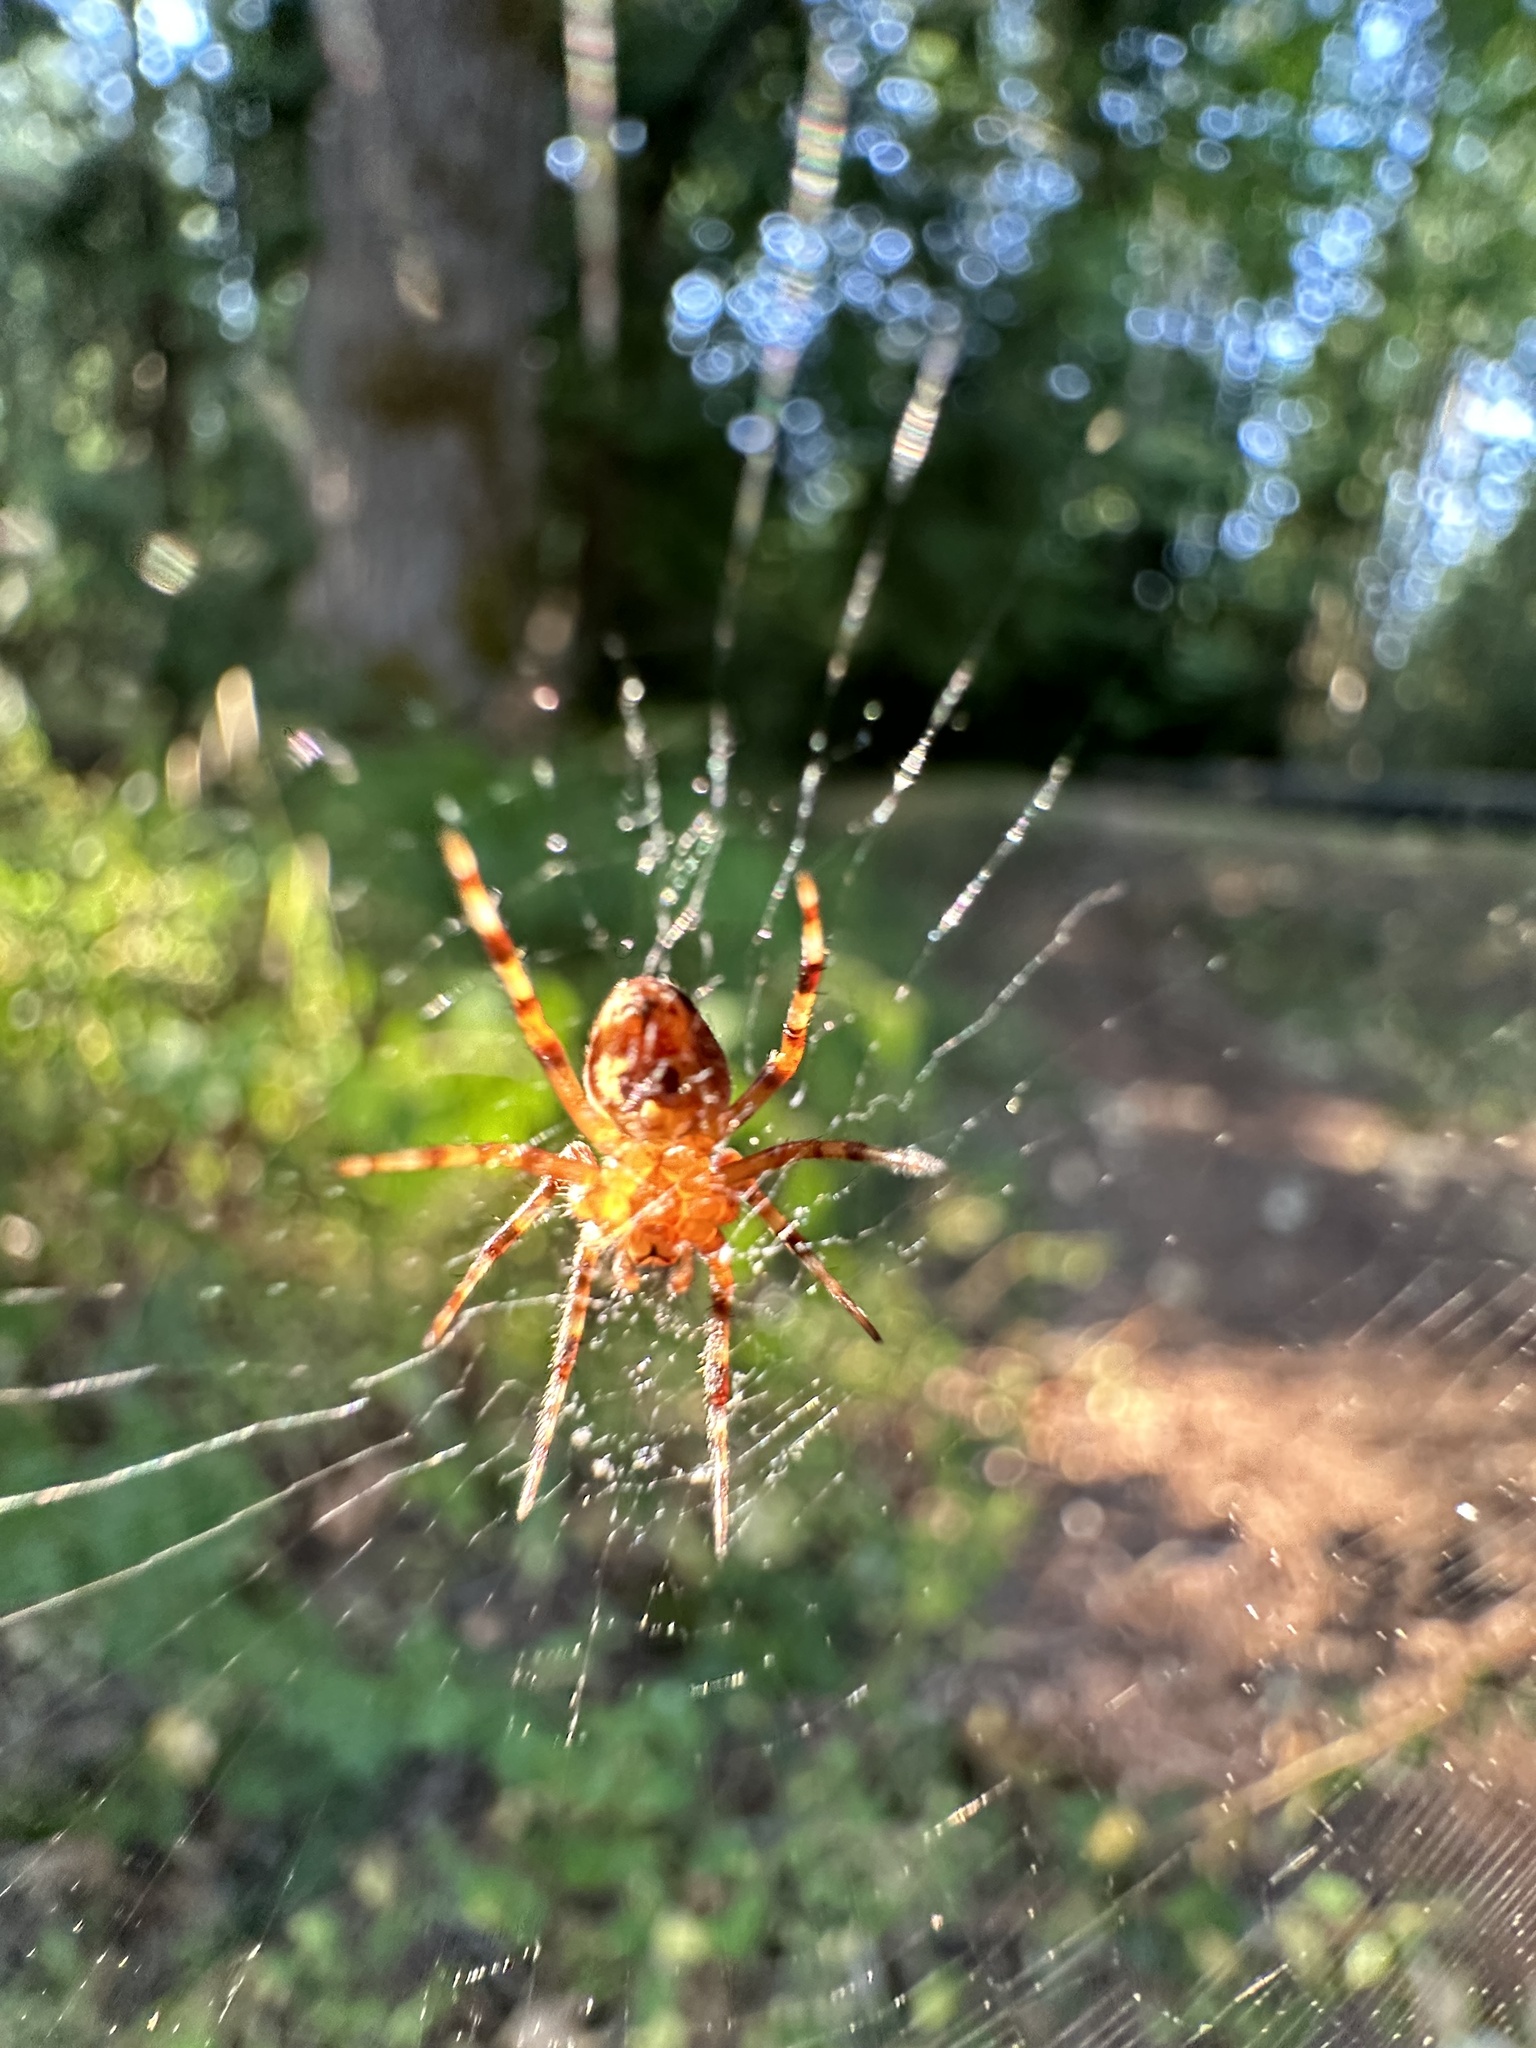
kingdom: Animalia
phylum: Arthropoda
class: Arachnida
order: Araneae
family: Araneidae
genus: Araneus
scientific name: Araneus diadematus
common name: Cross orbweaver
